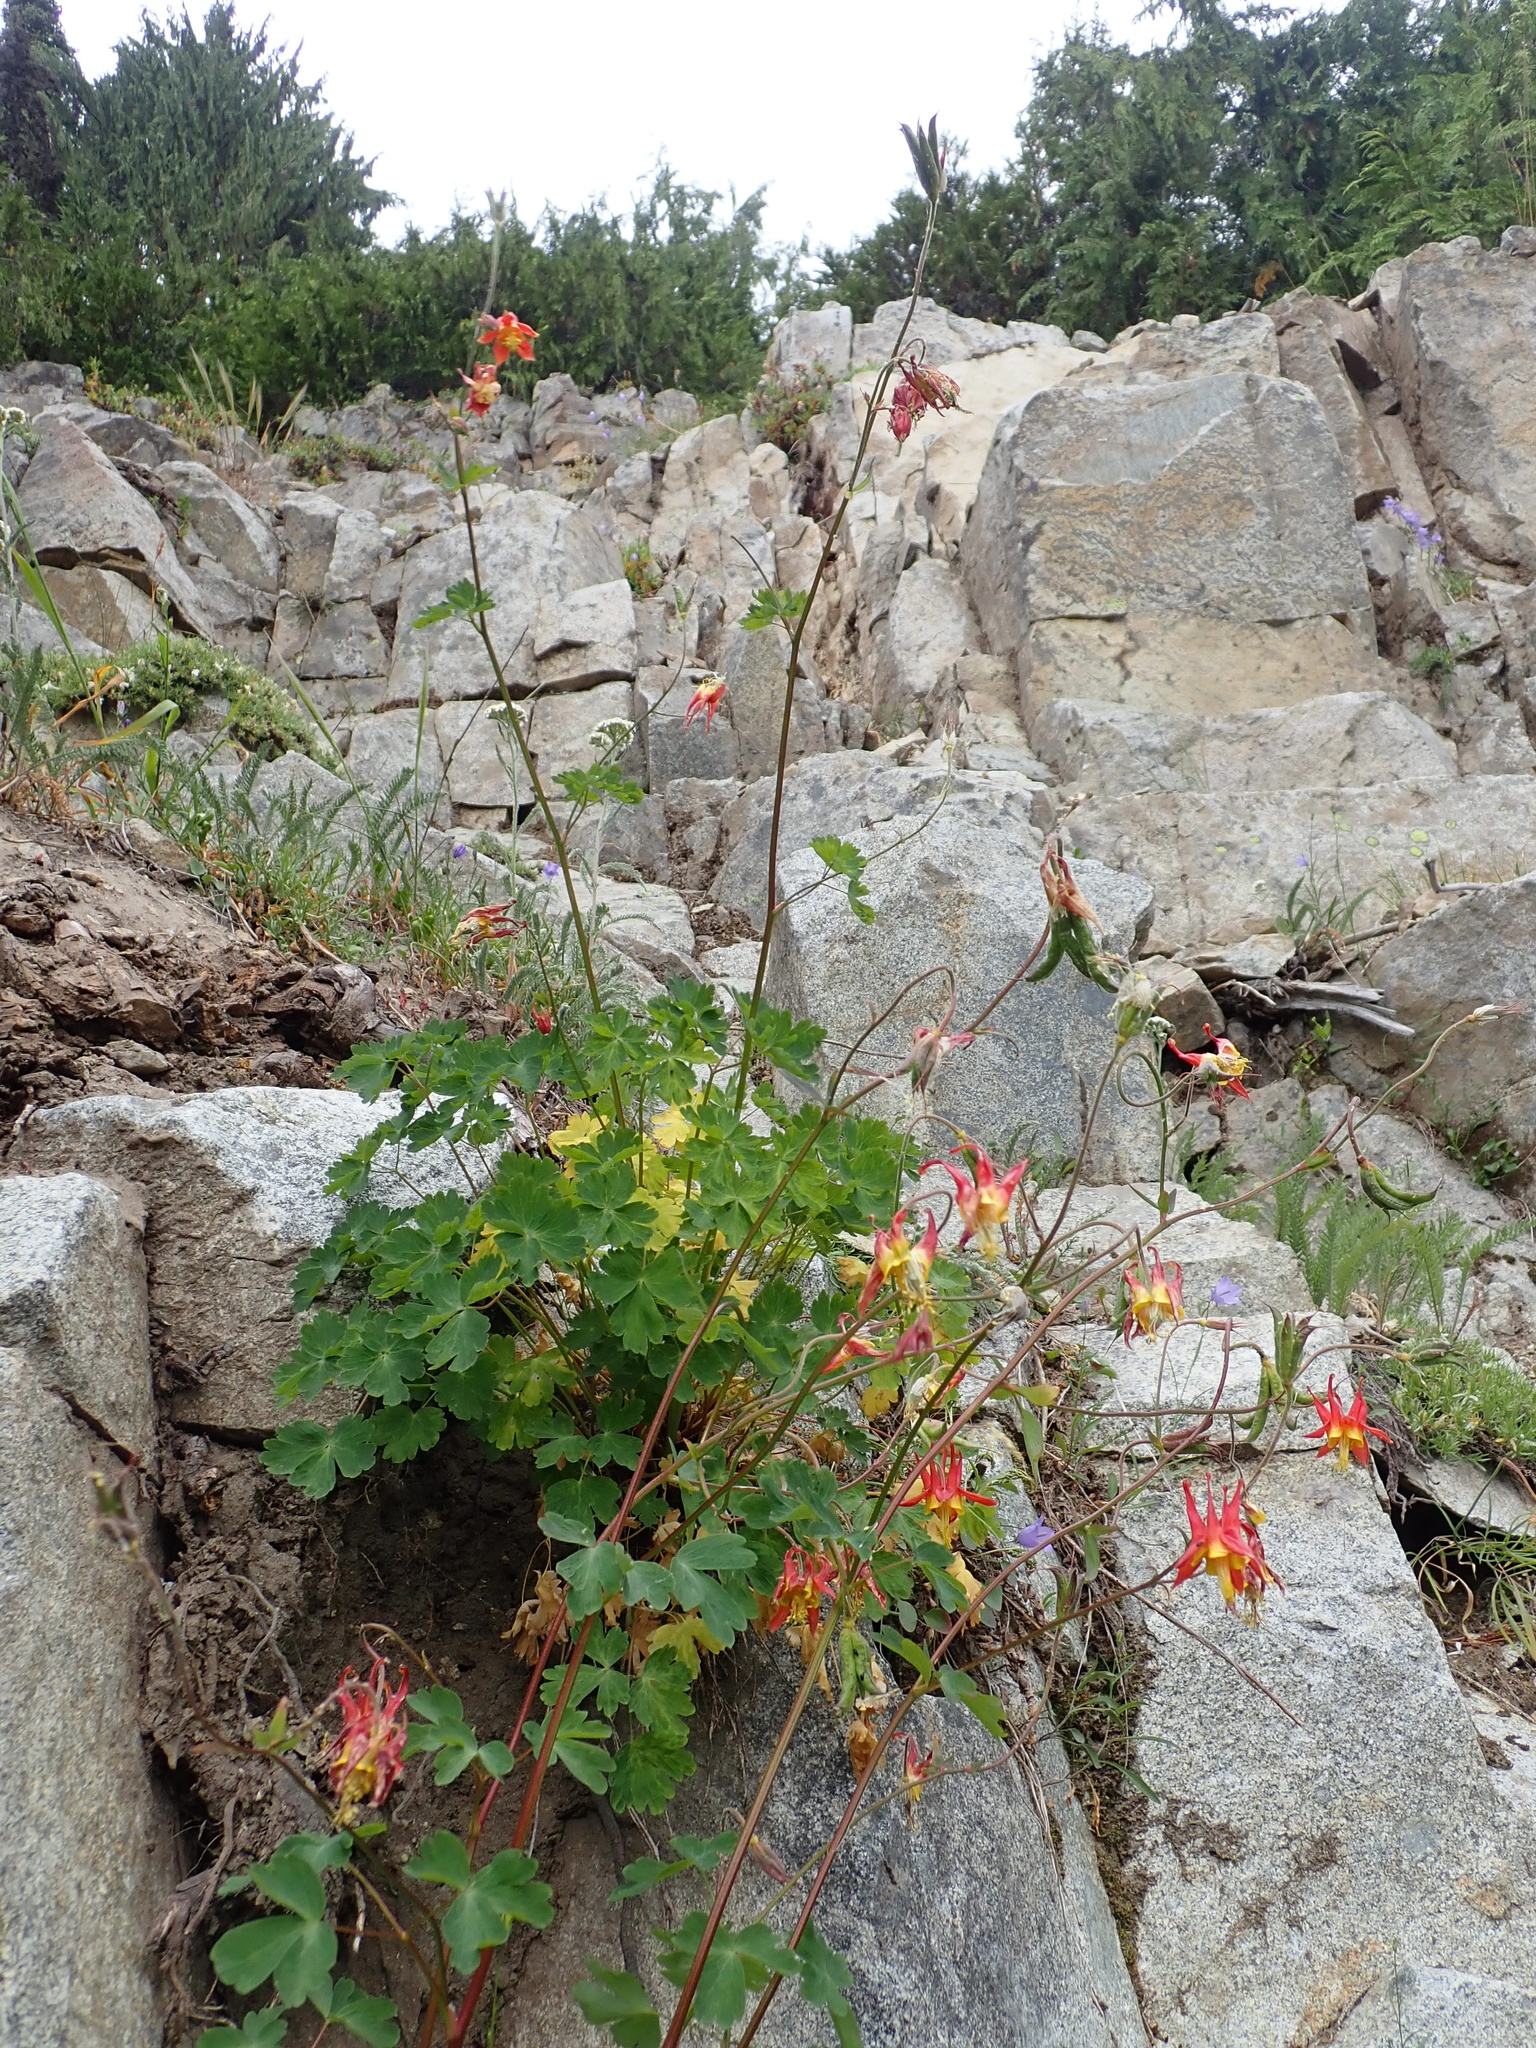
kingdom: Plantae
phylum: Tracheophyta
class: Magnoliopsida
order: Ranunculales
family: Ranunculaceae
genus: Aquilegia
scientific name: Aquilegia formosa
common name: Sitka columbine
